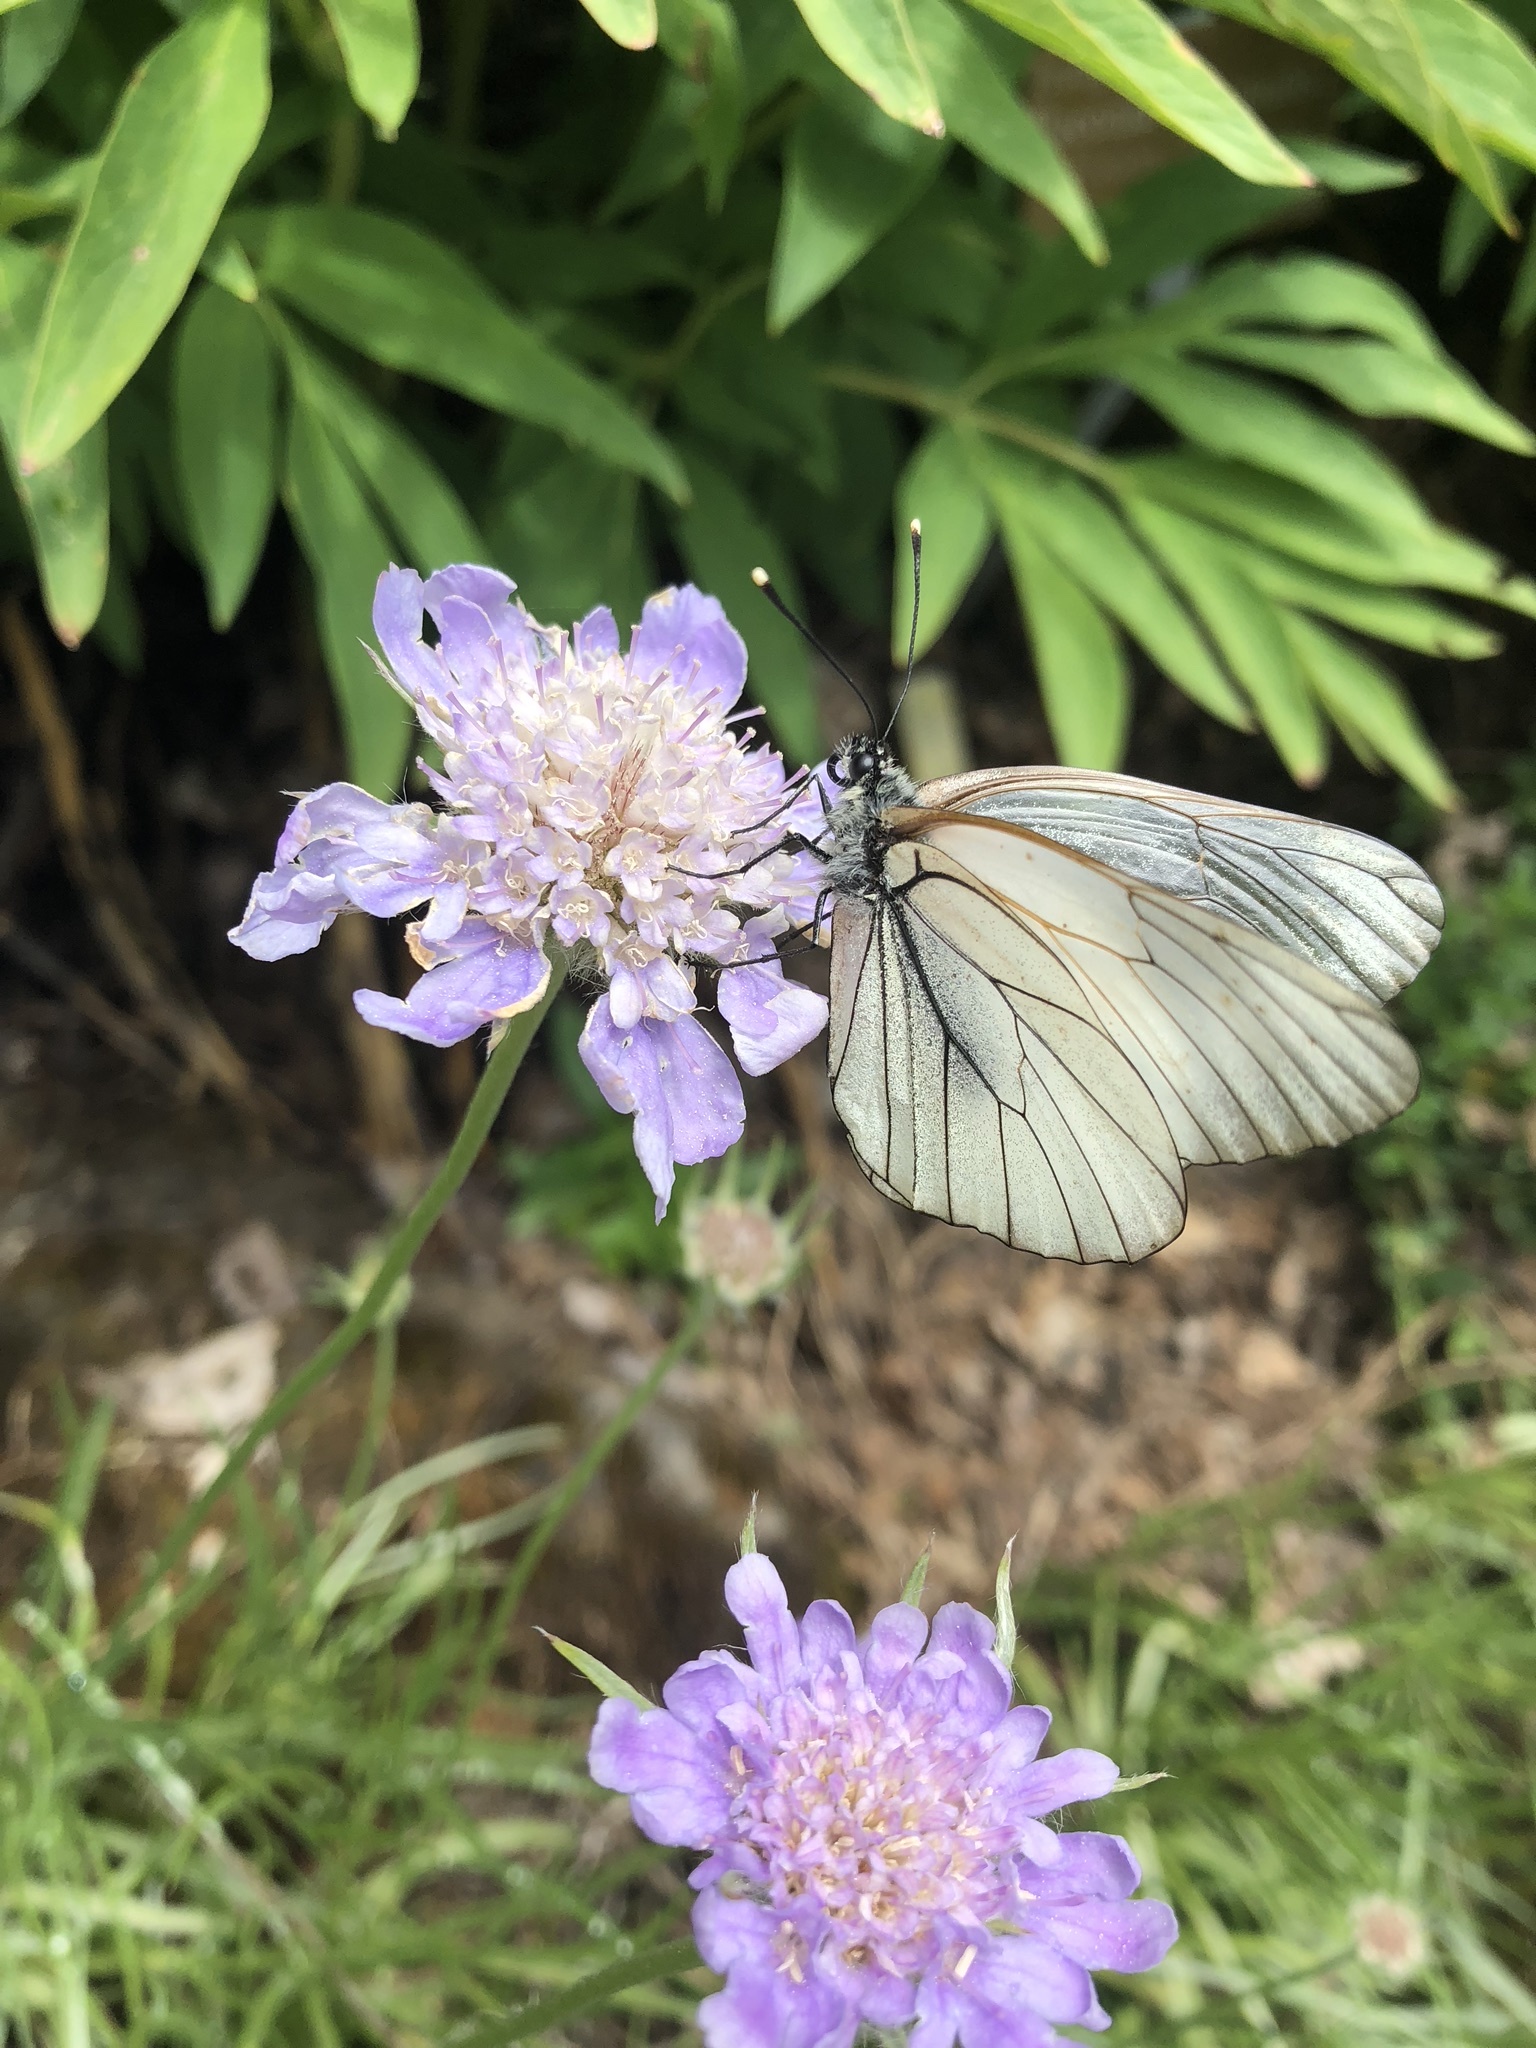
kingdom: Animalia
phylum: Arthropoda
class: Insecta
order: Lepidoptera
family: Pieridae
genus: Aporia
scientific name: Aporia crataegi
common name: Black-veined white
